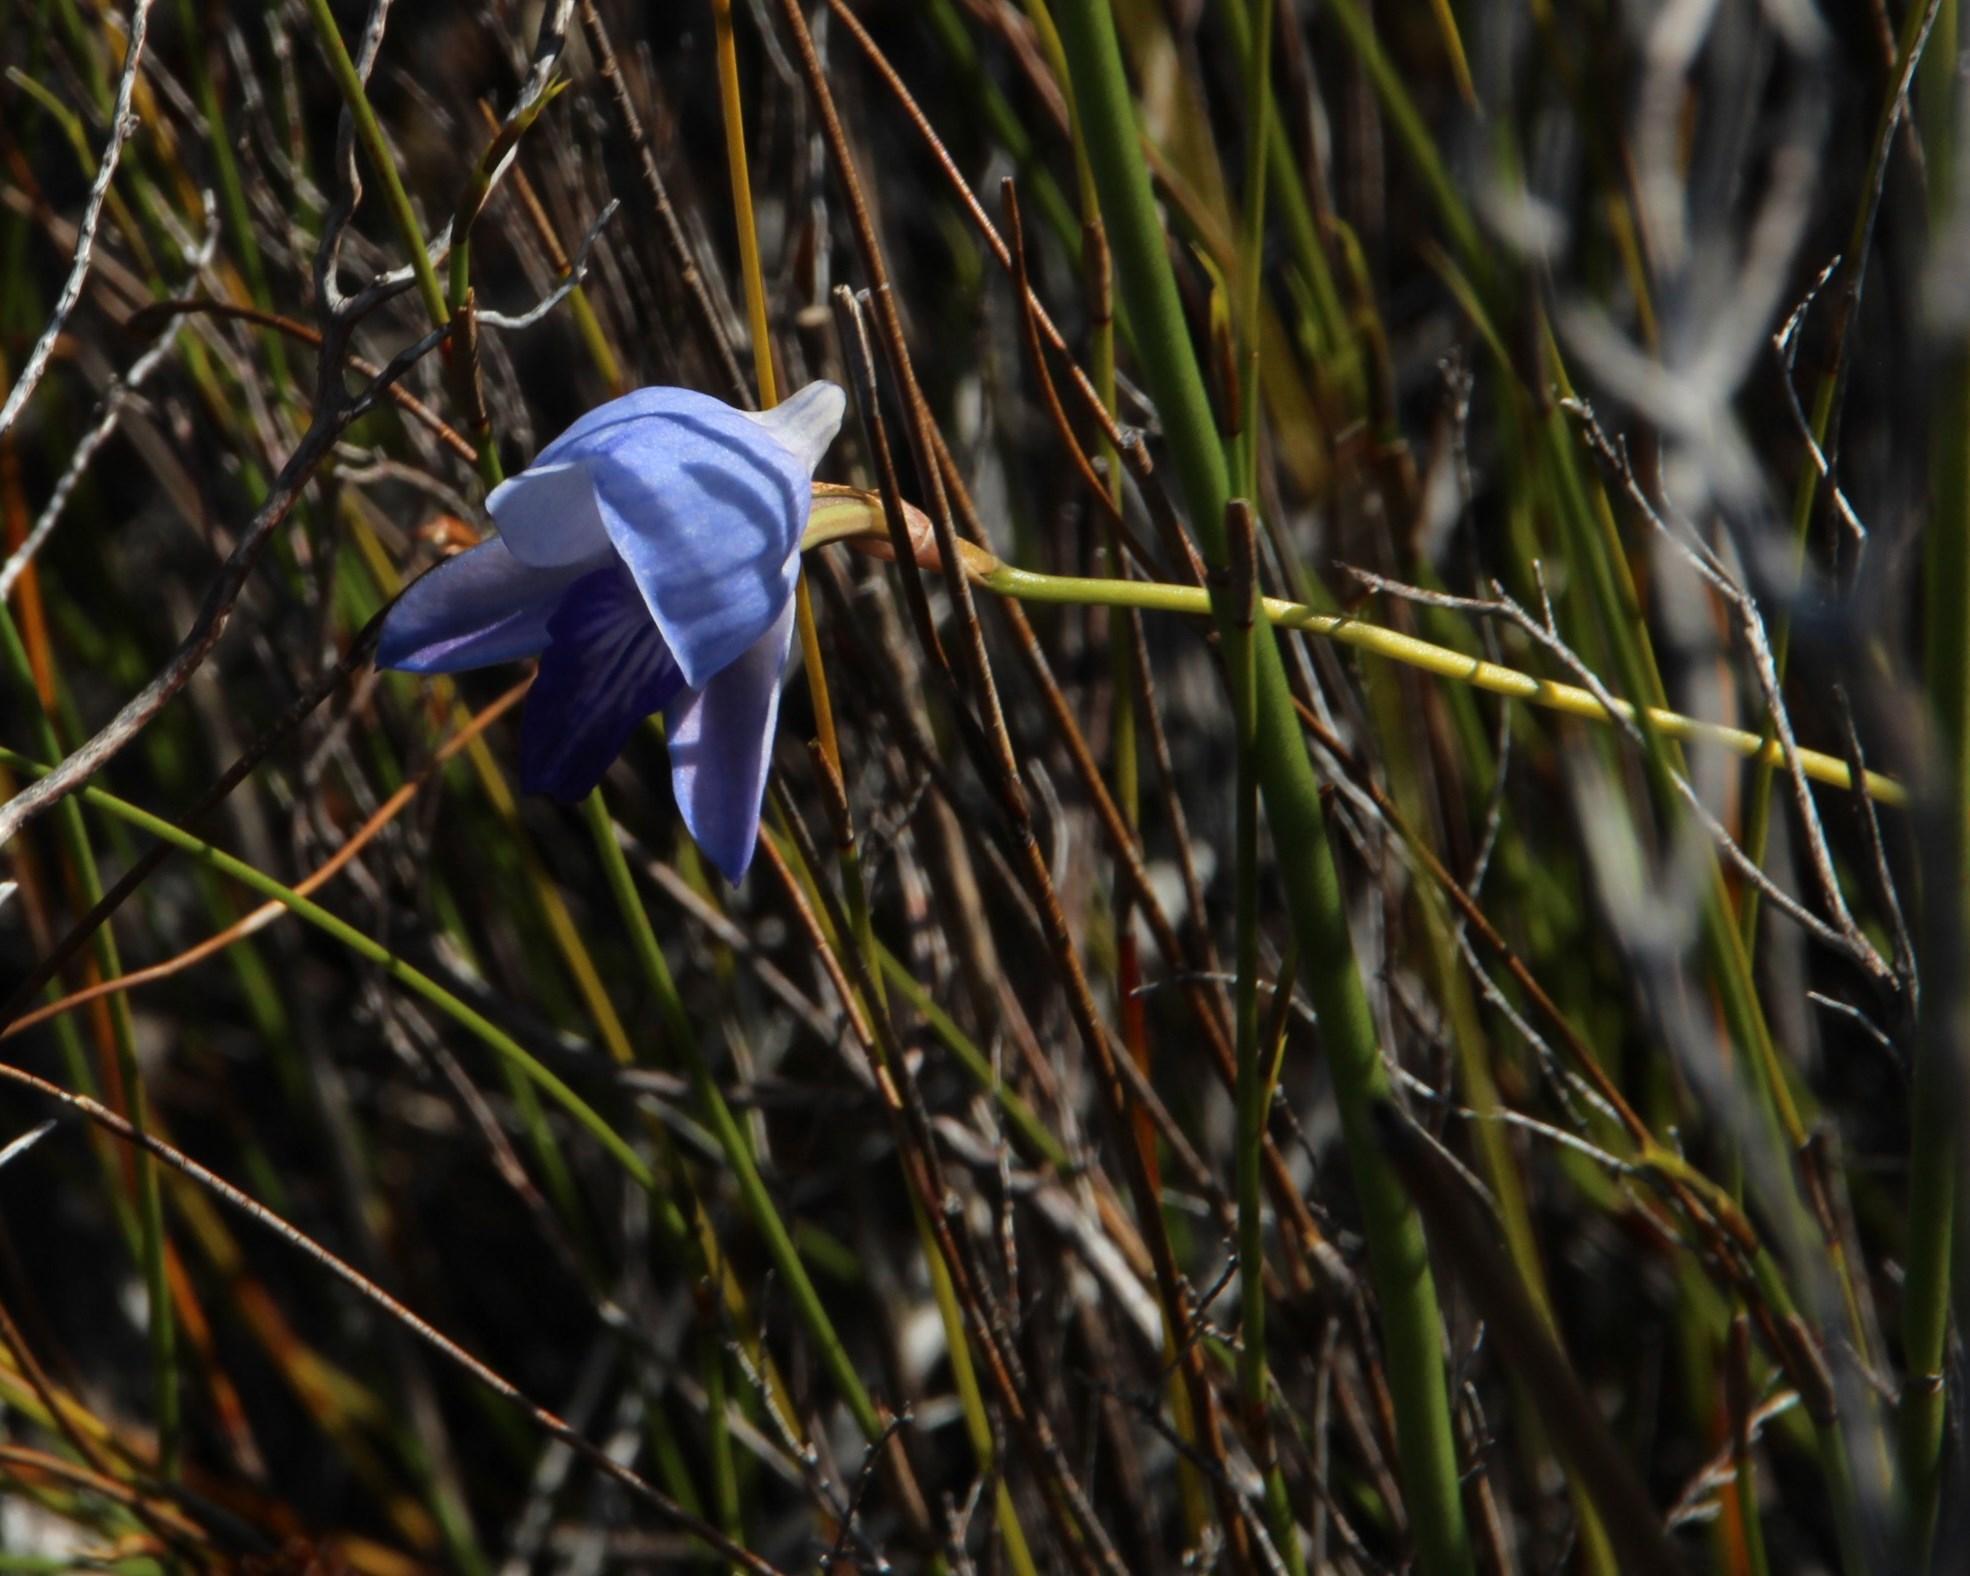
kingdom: Plantae
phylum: Tracheophyta
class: Liliopsida
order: Asparagales
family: Orchidaceae
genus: Disa
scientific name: Disa purpurascens
